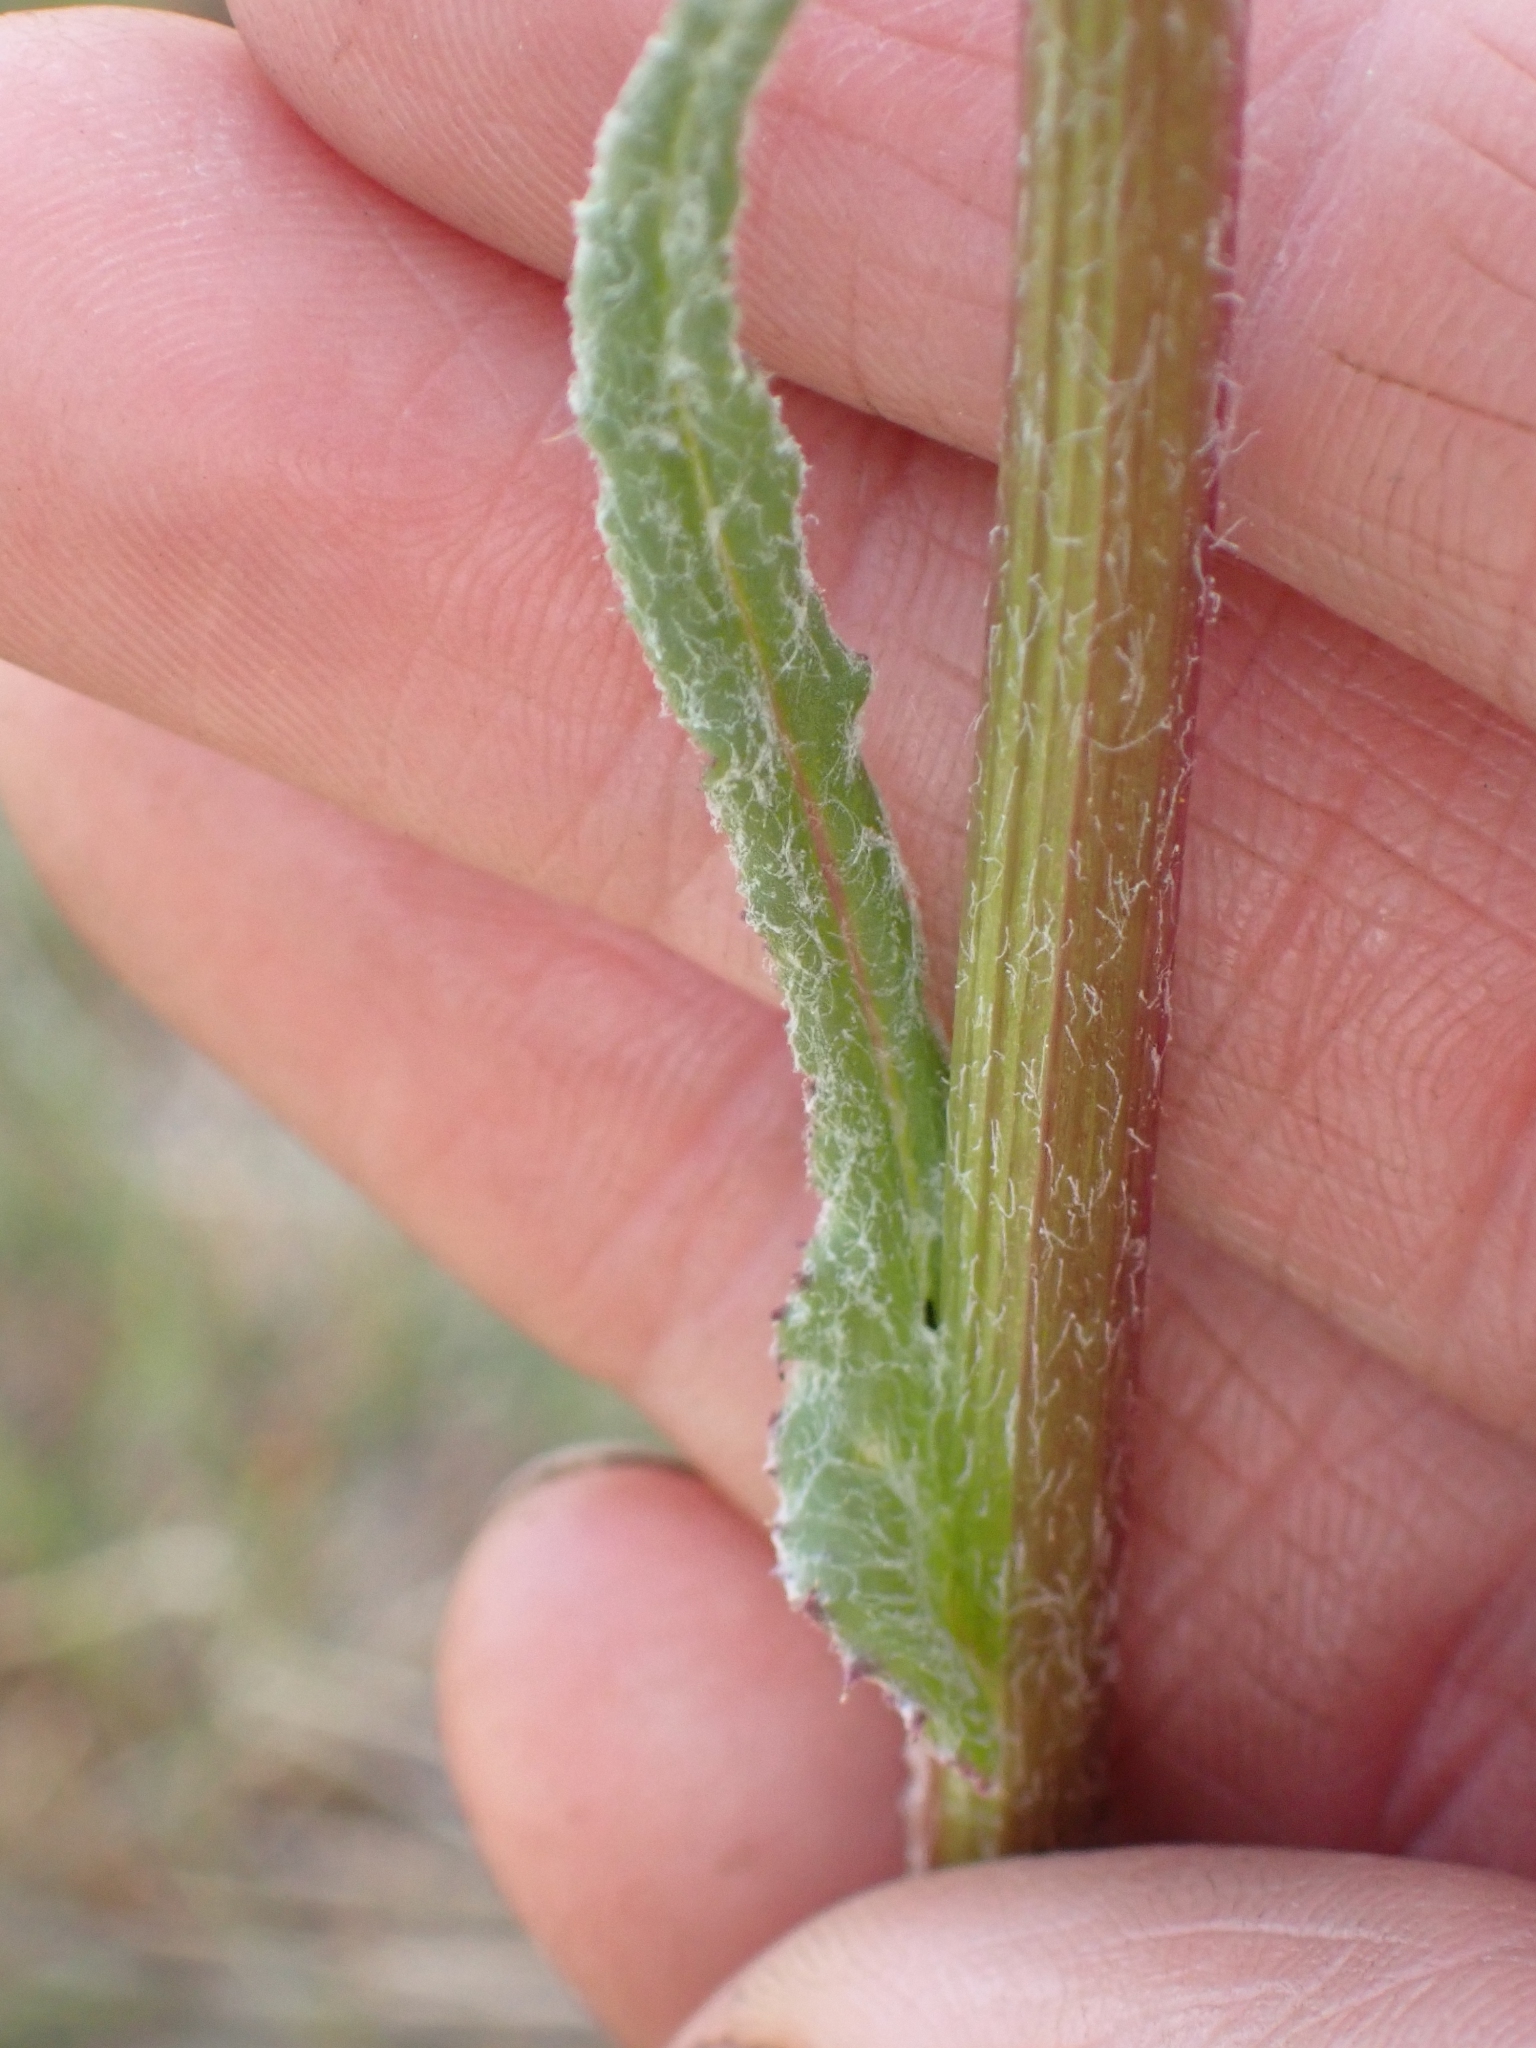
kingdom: Plantae
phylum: Tracheophyta
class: Magnoliopsida
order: Asterales
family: Asteraceae
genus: Senecio
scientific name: Senecio integerrimus
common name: Gaugeplant
